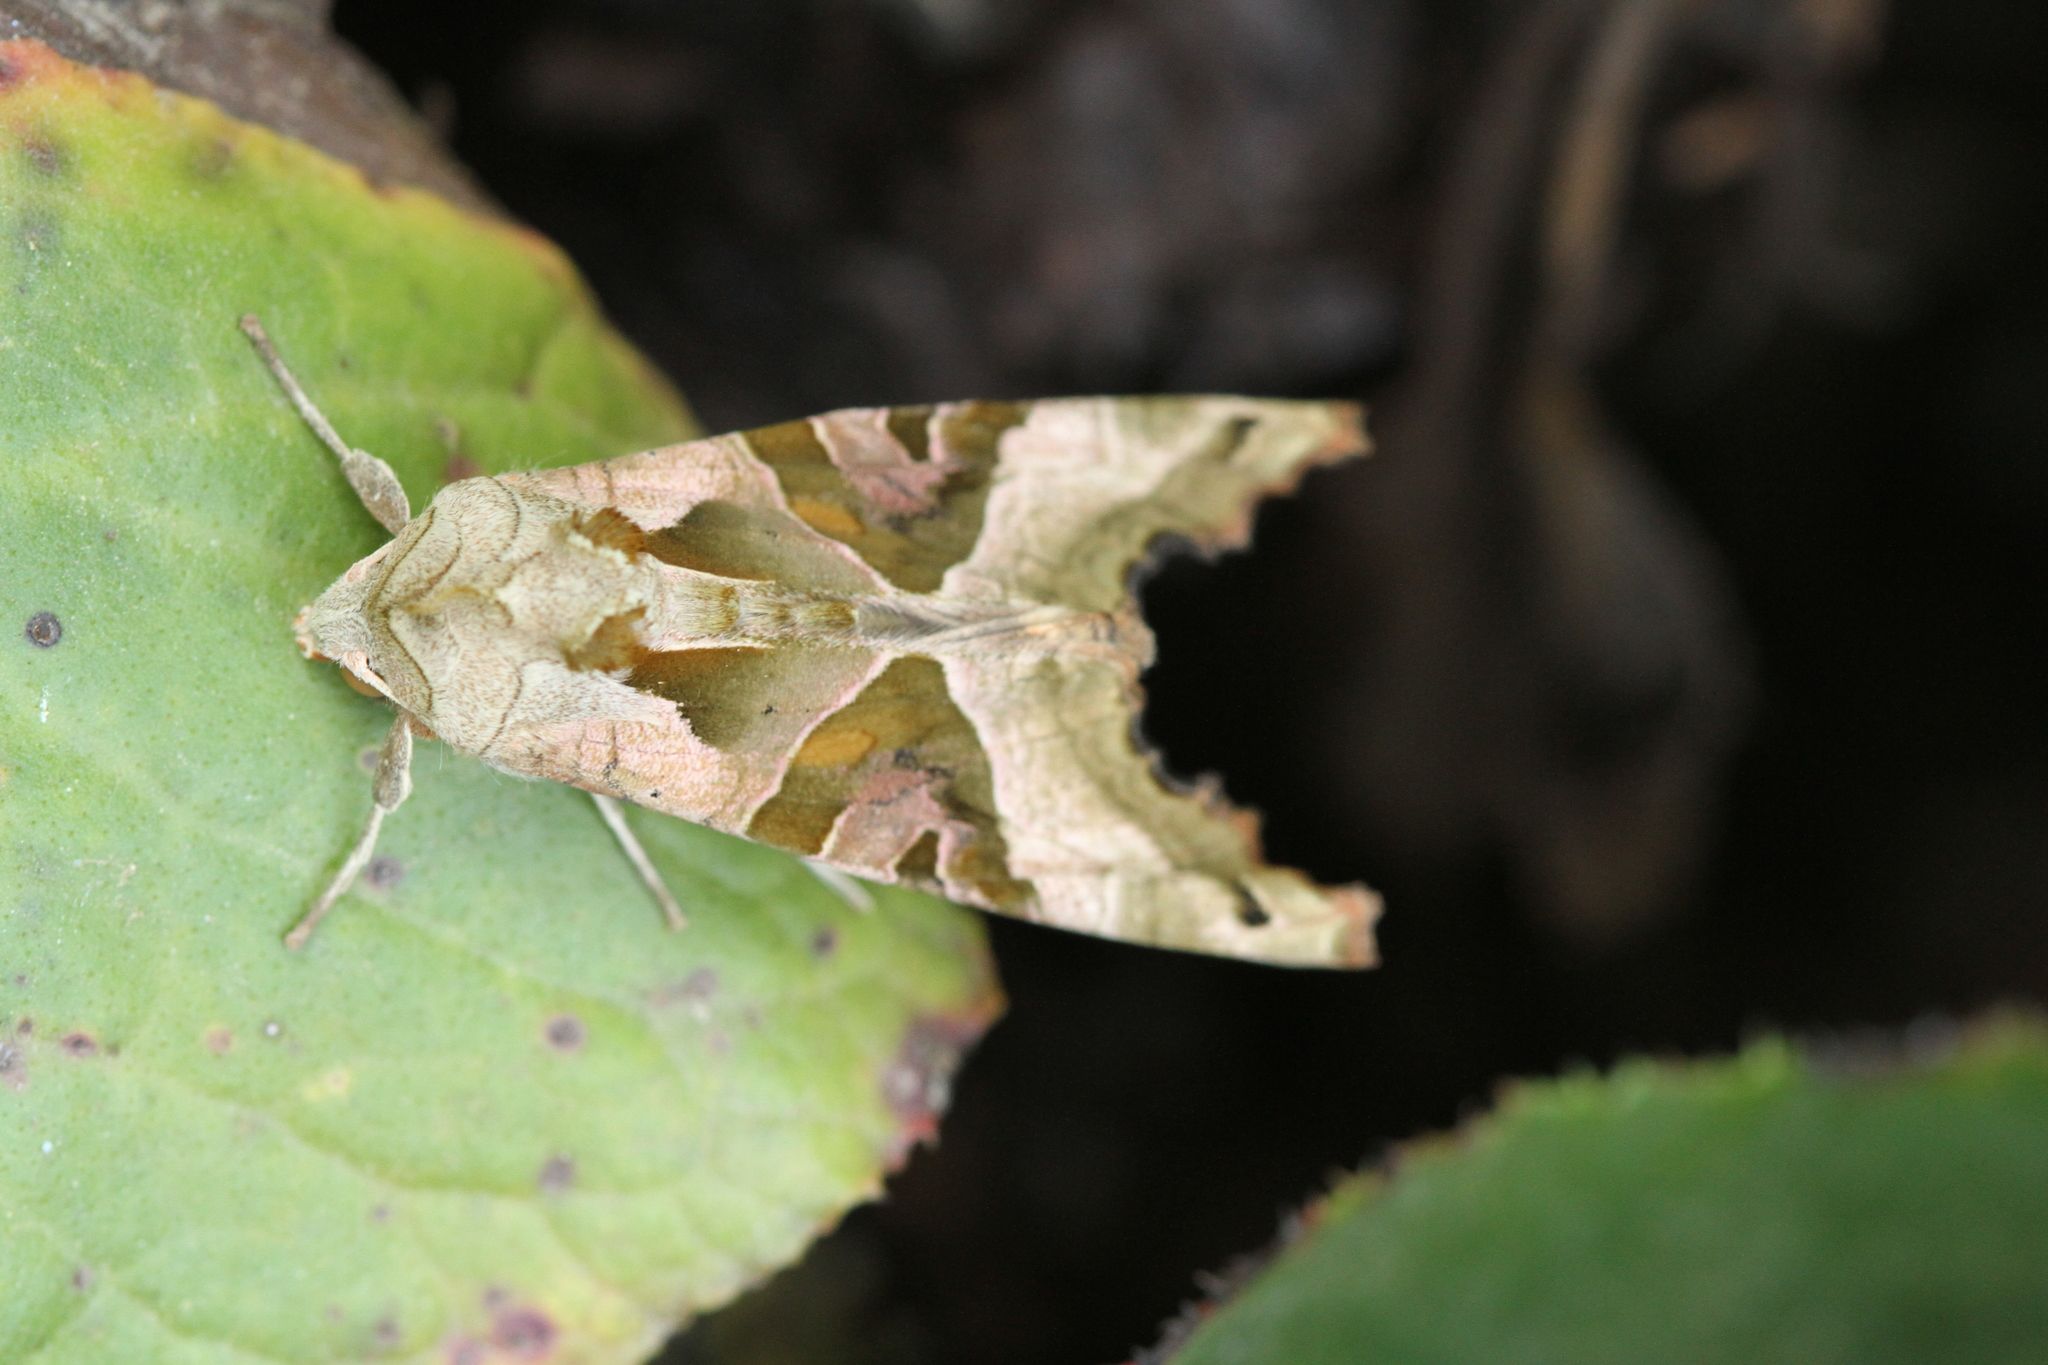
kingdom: Animalia
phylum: Arthropoda
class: Insecta
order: Lepidoptera
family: Noctuidae
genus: Phlogophora
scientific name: Phlogophora meticulosa
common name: Angle shades
